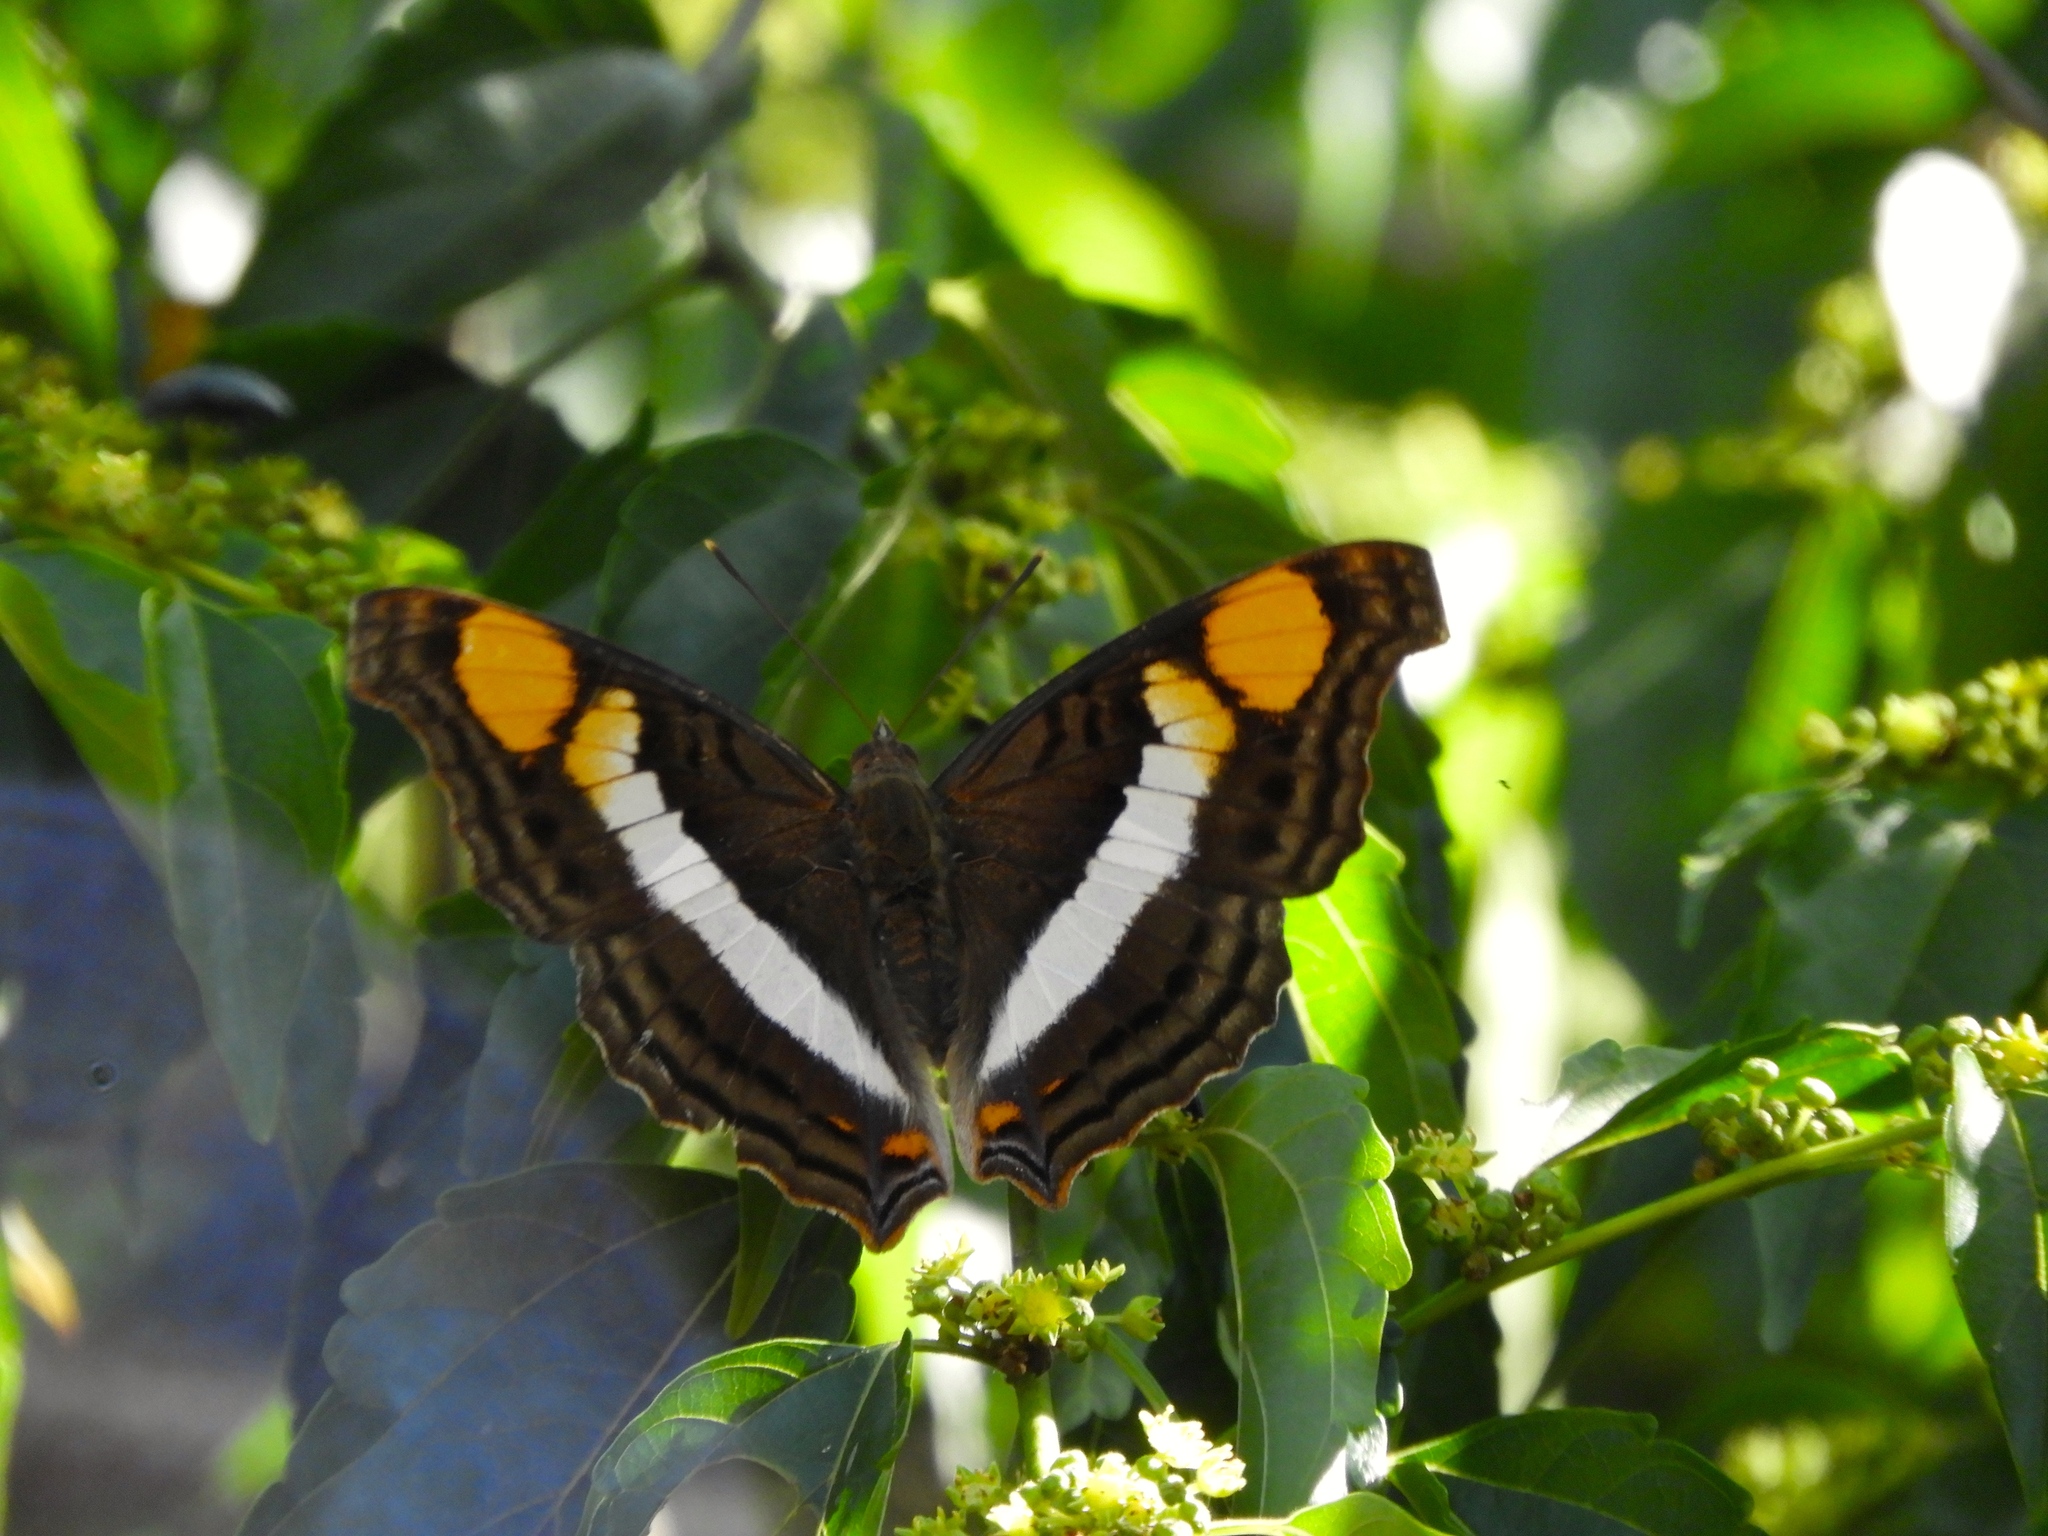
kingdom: Animalia
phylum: Arthropoda
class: Insecta
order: Lepidoptera
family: Nymphalidae
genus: Doxocopa
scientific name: Doxocopa laure
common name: Silver emperor
